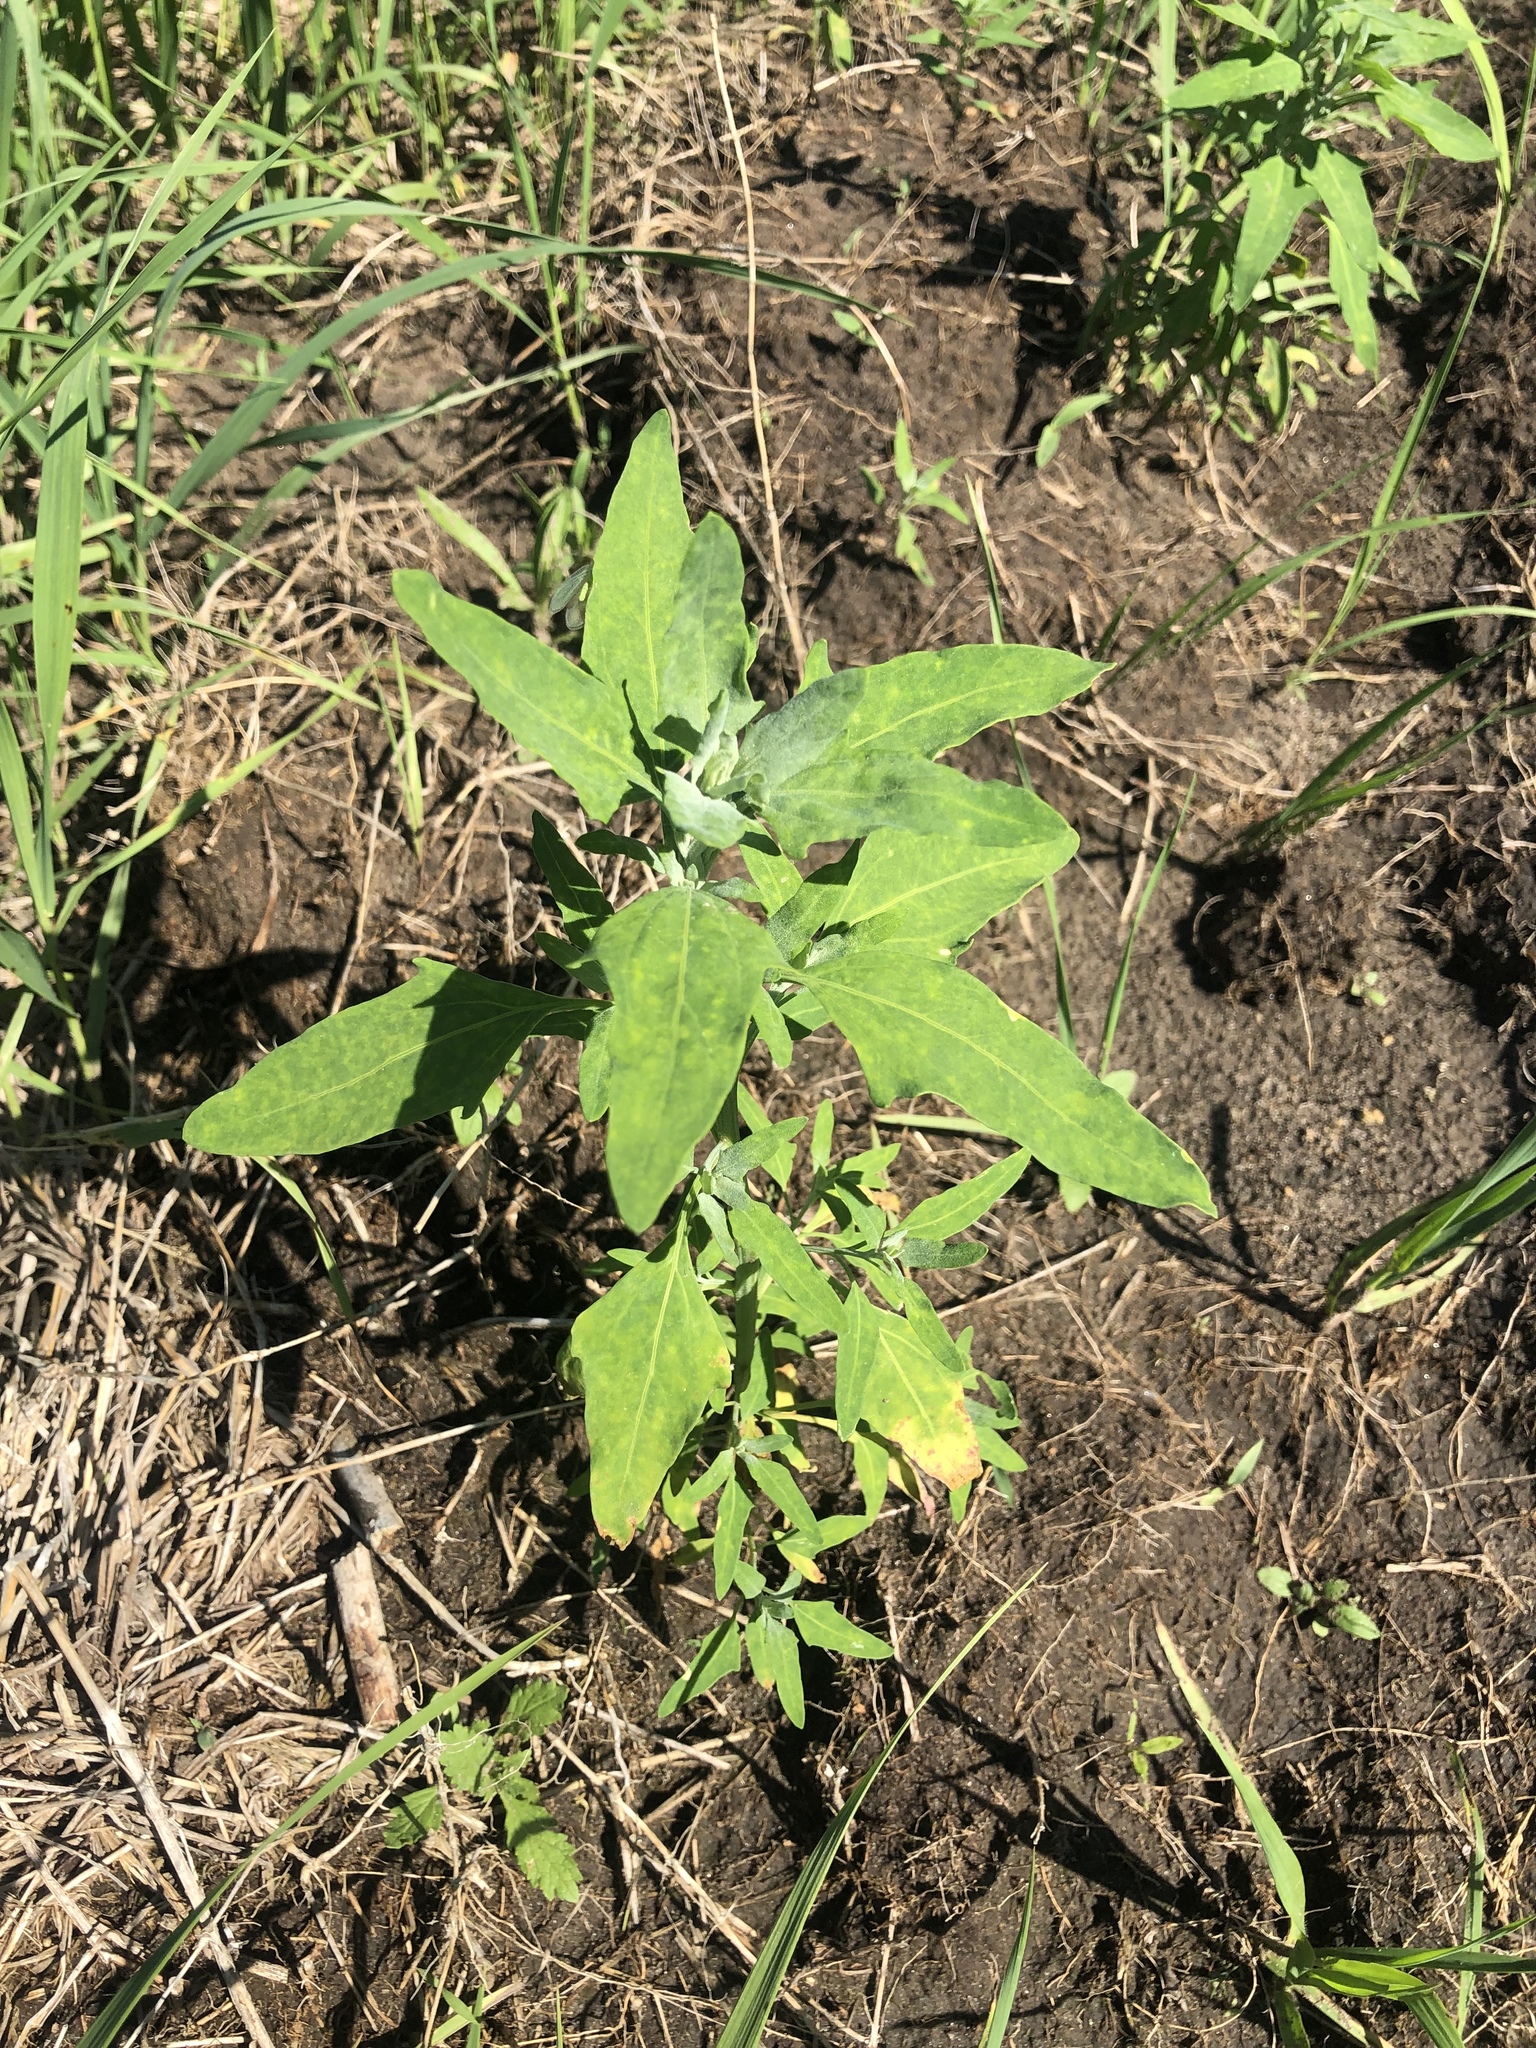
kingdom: Plantae
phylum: Tracheophyta
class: Magnoliopsida
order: Caryophyllales
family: Amaranthaceae
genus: Chenopodium
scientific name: Chenopodium album
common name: Fat-hen
